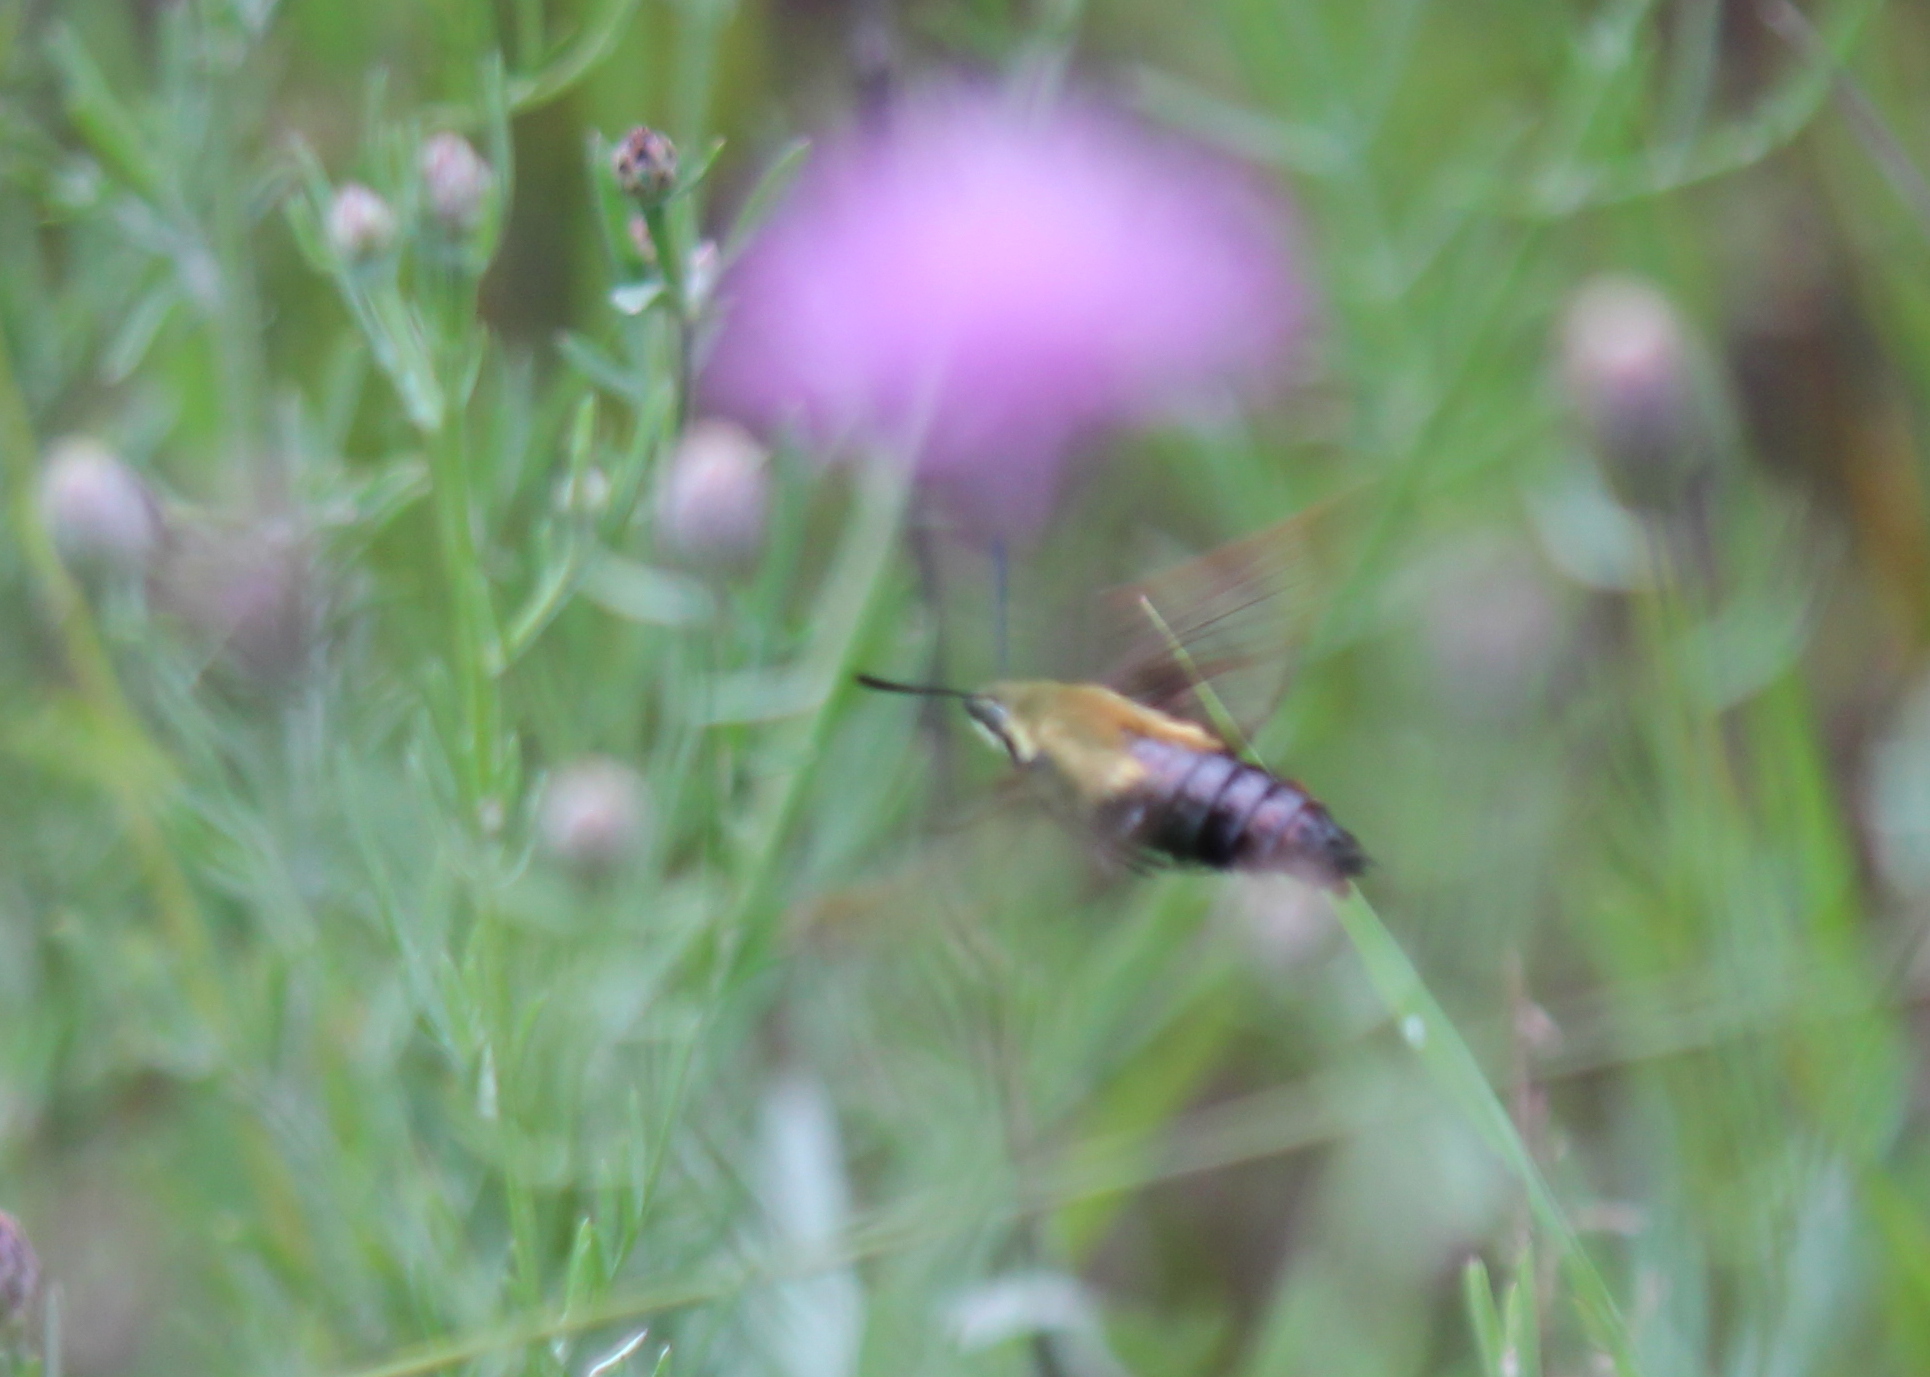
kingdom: Animalia
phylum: Arthropoda
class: Insecta
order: Lepidoptera
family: Sphingidae
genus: Hemaris
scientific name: Hemaris diffinis
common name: Bumblebee moth
